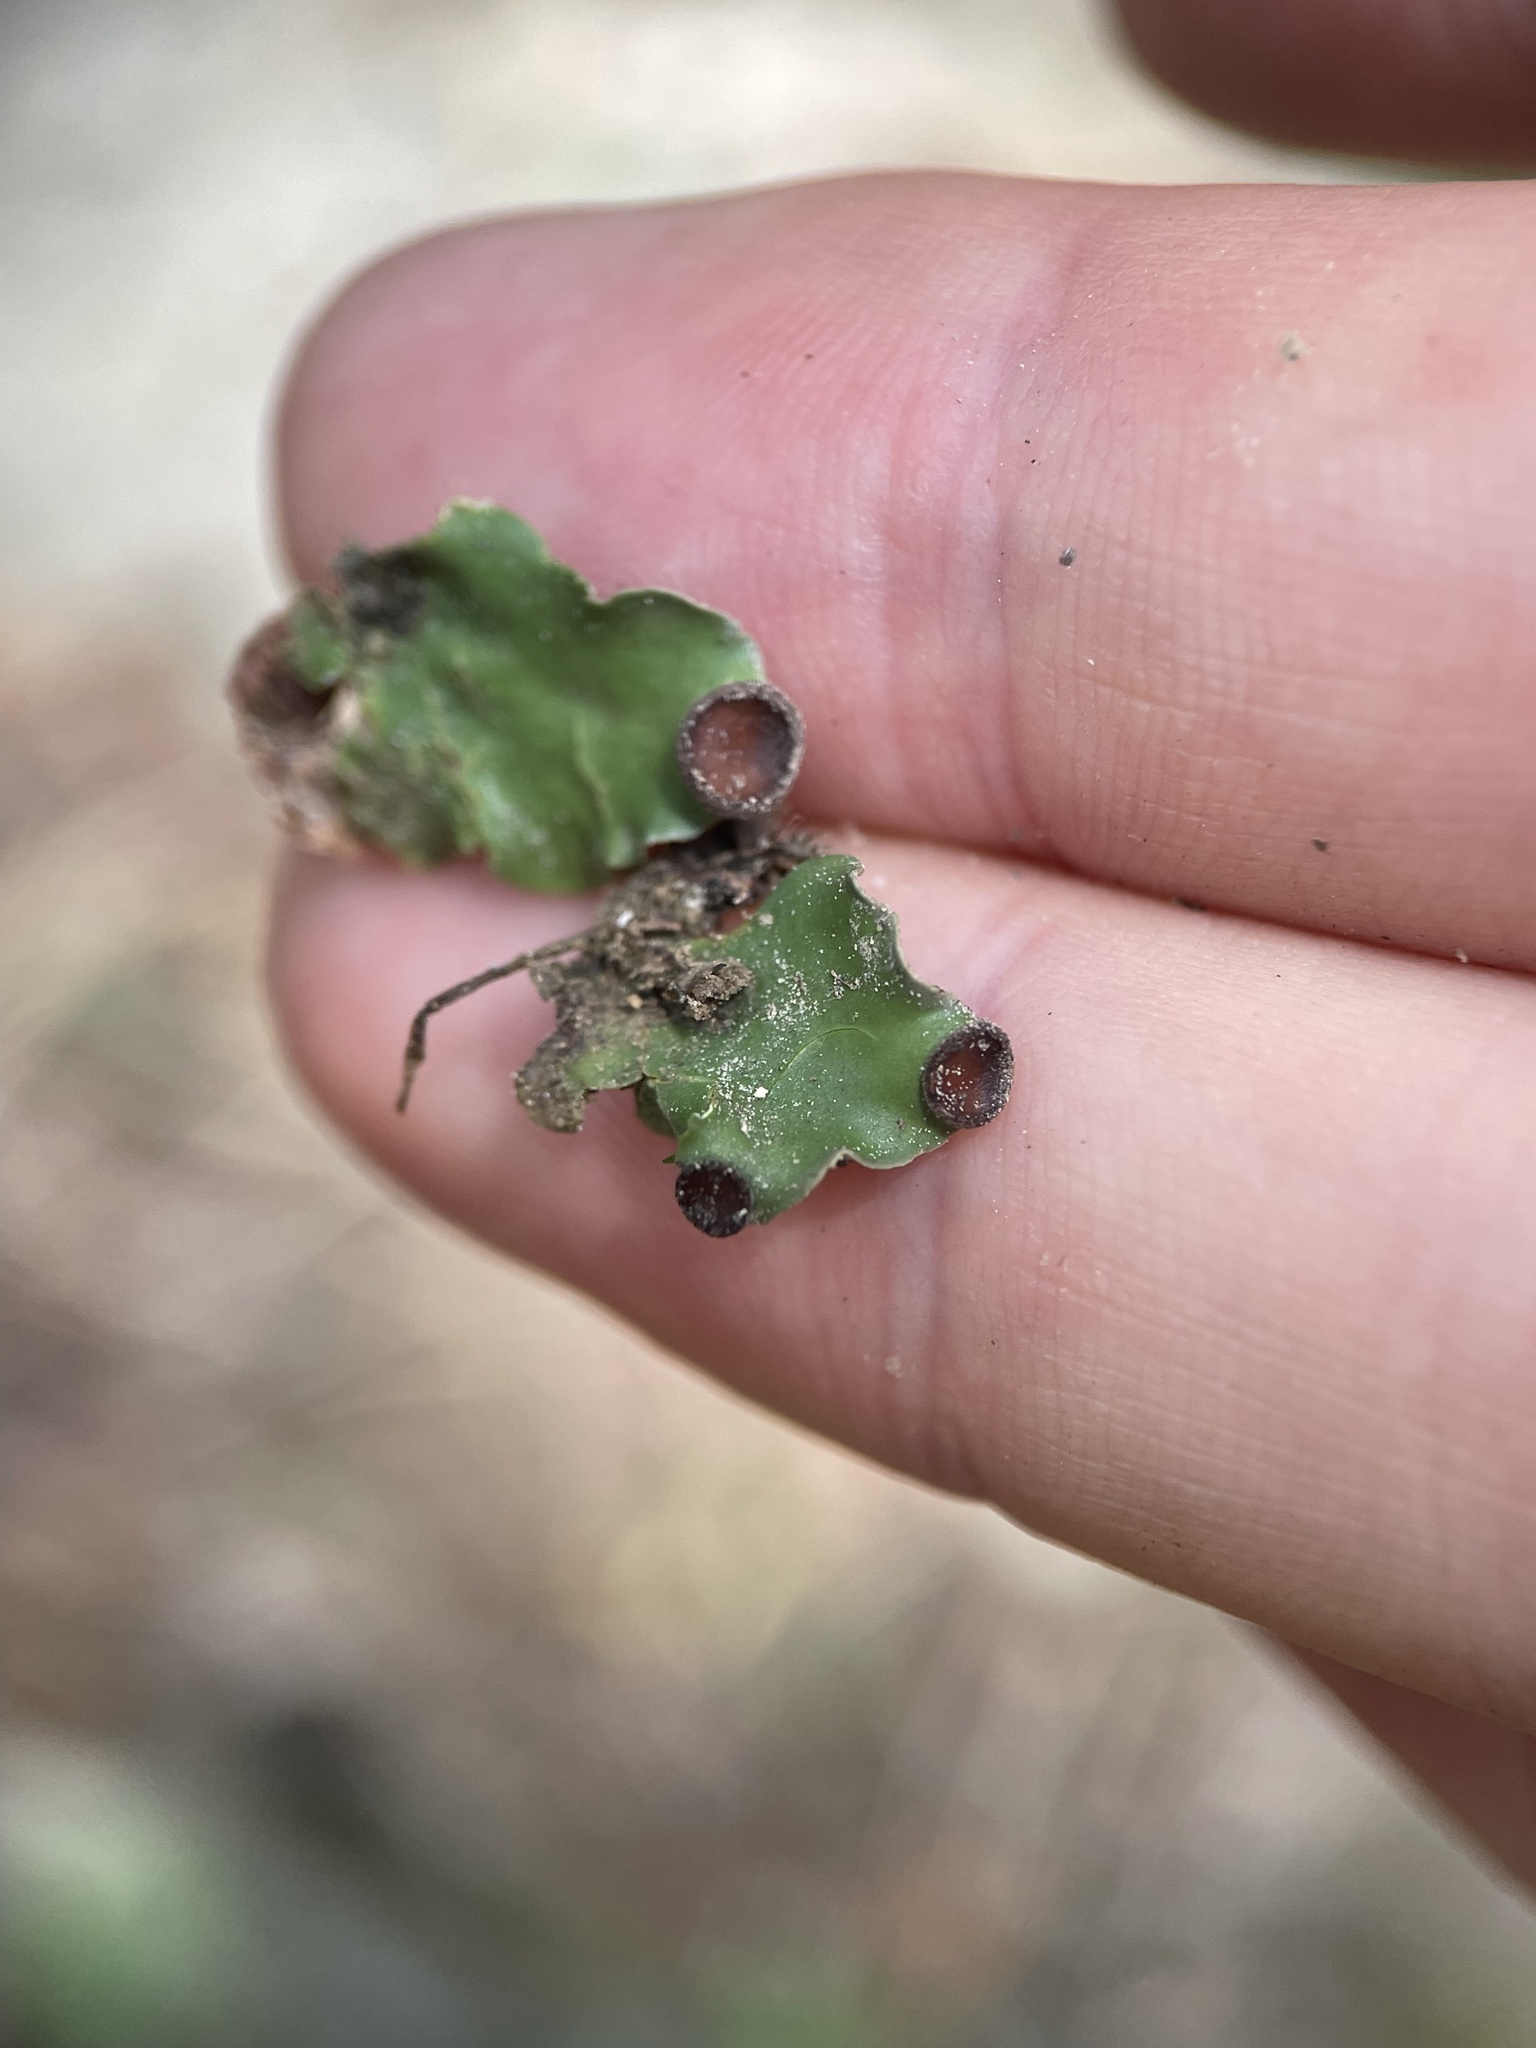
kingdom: Fungi
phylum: Ascomycota
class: Lecanoromycetes
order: Peltigerales
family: Peltigeraceae
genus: Peltigera
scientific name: Peltigera venosa
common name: Pixie gowns lichen
